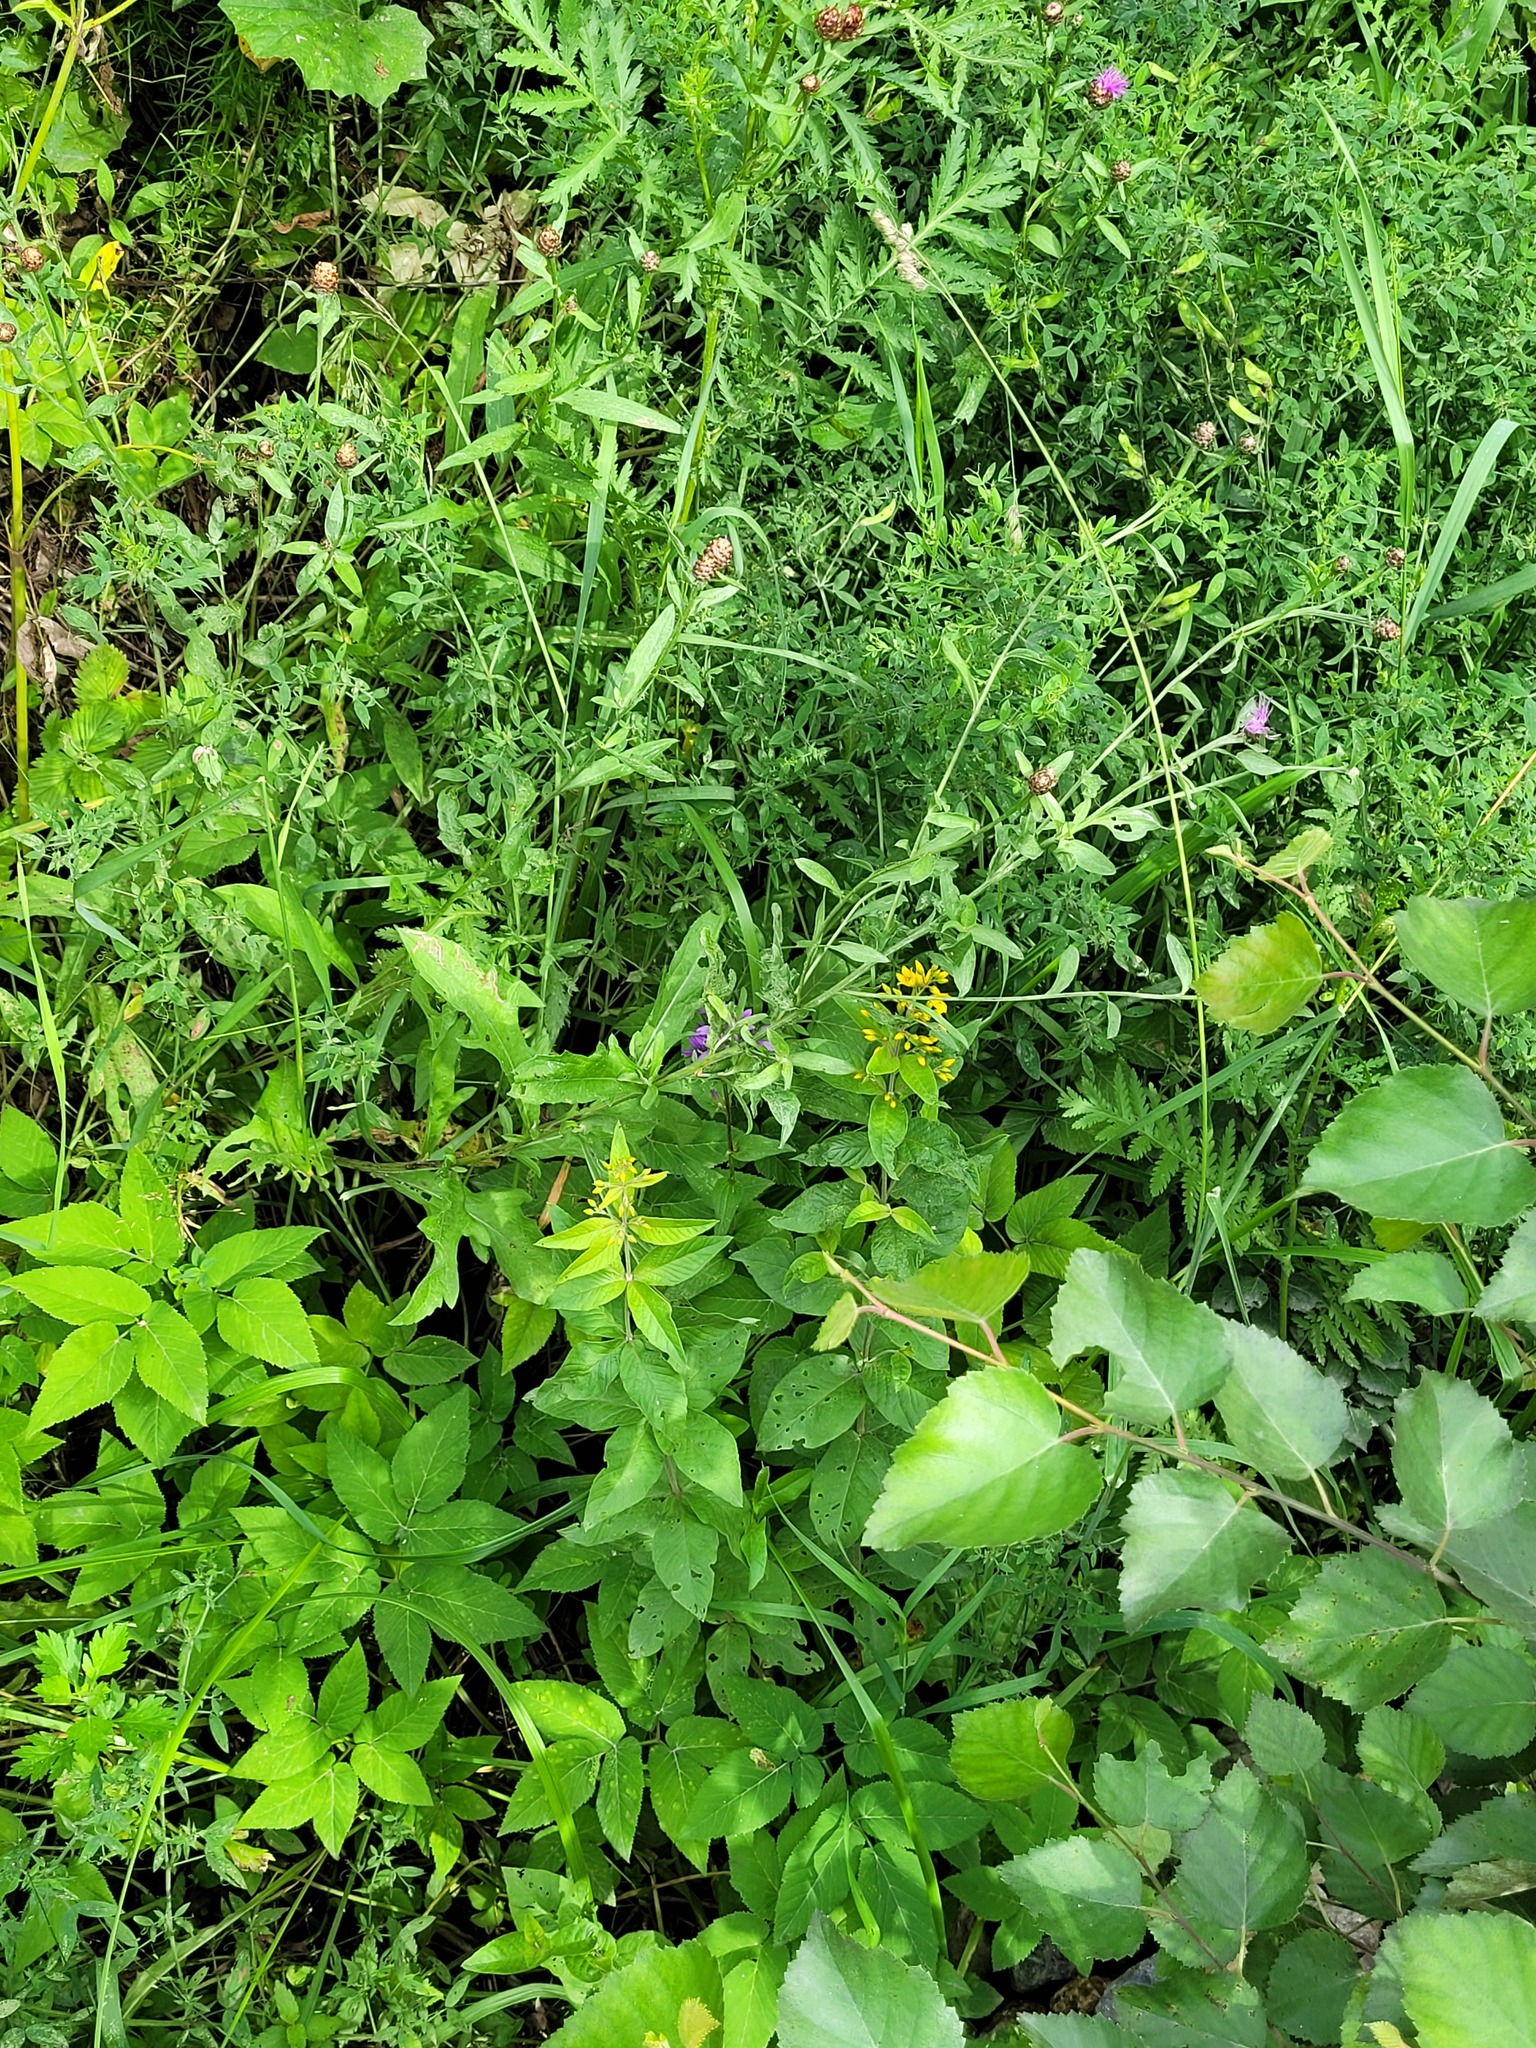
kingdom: Plantae
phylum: Tracheophyta
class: Magnoliopsida
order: Ericales
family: Primulaceae
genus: Lysimachia
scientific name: Lysimachia vulgaris
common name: Yellow loosestrife
